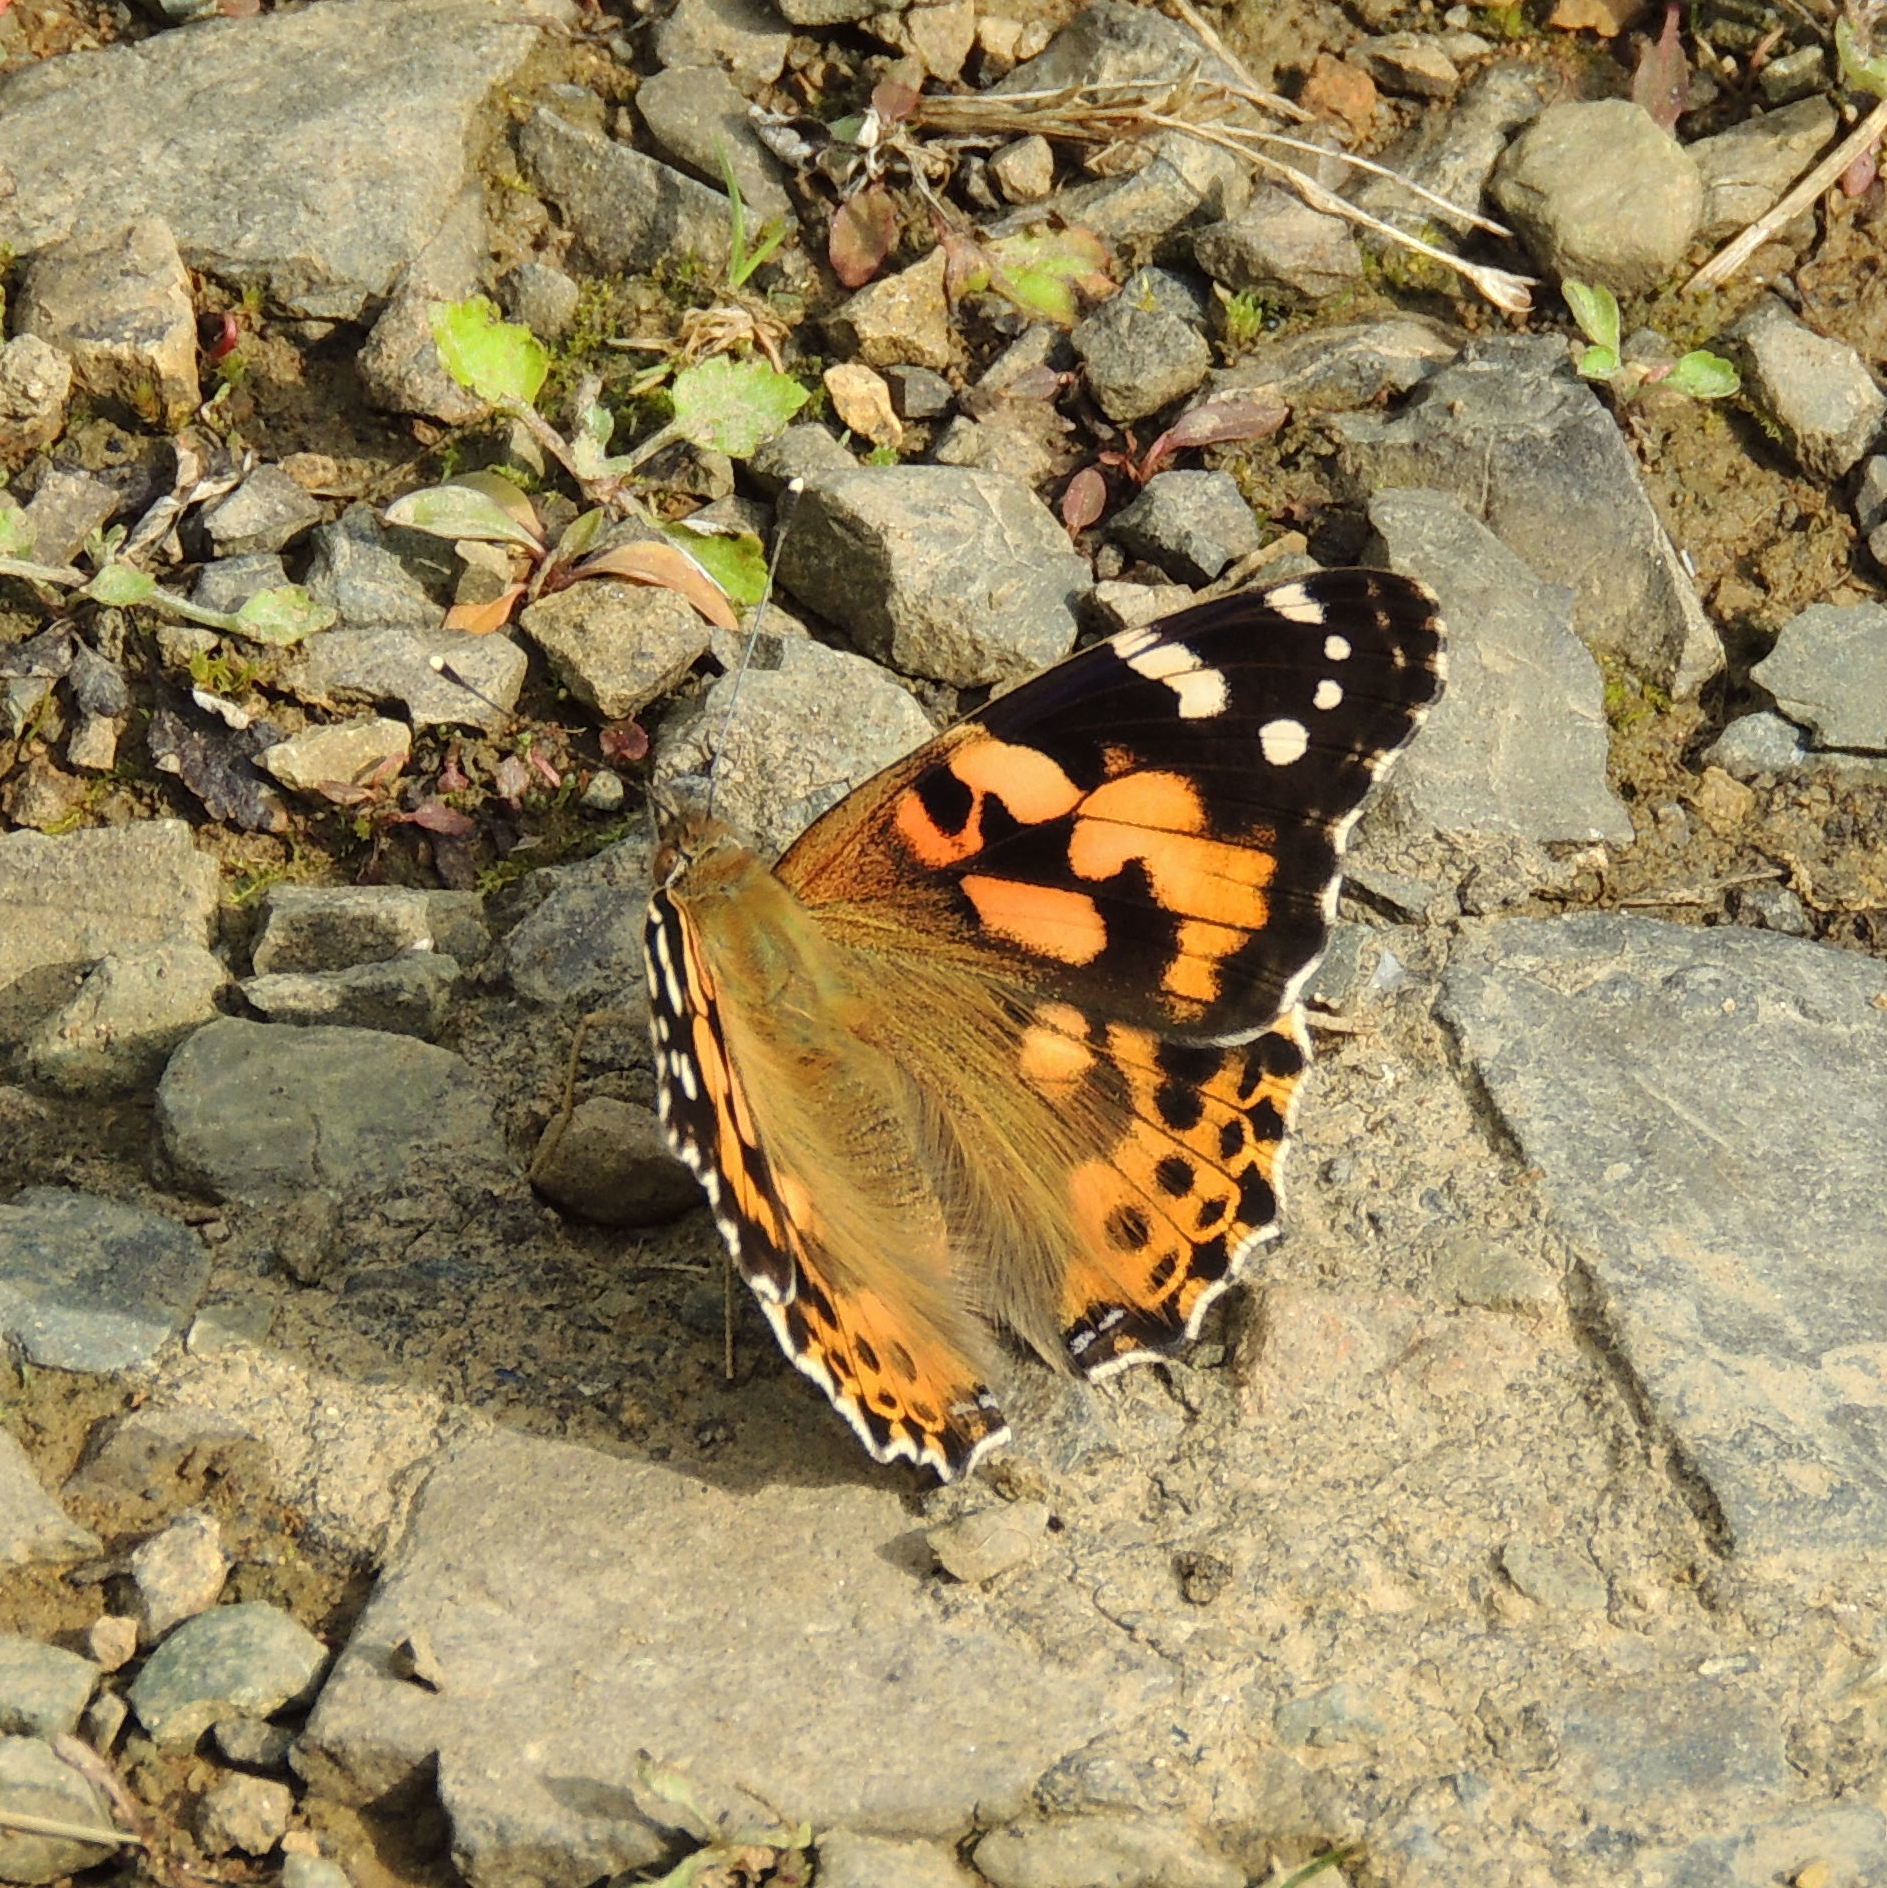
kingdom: Animalia
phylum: Arthropoda
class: Insecta
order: Lepidoptera
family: Nymphalidae
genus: Vanessa
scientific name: Vanessa cardui
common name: Painted lady
